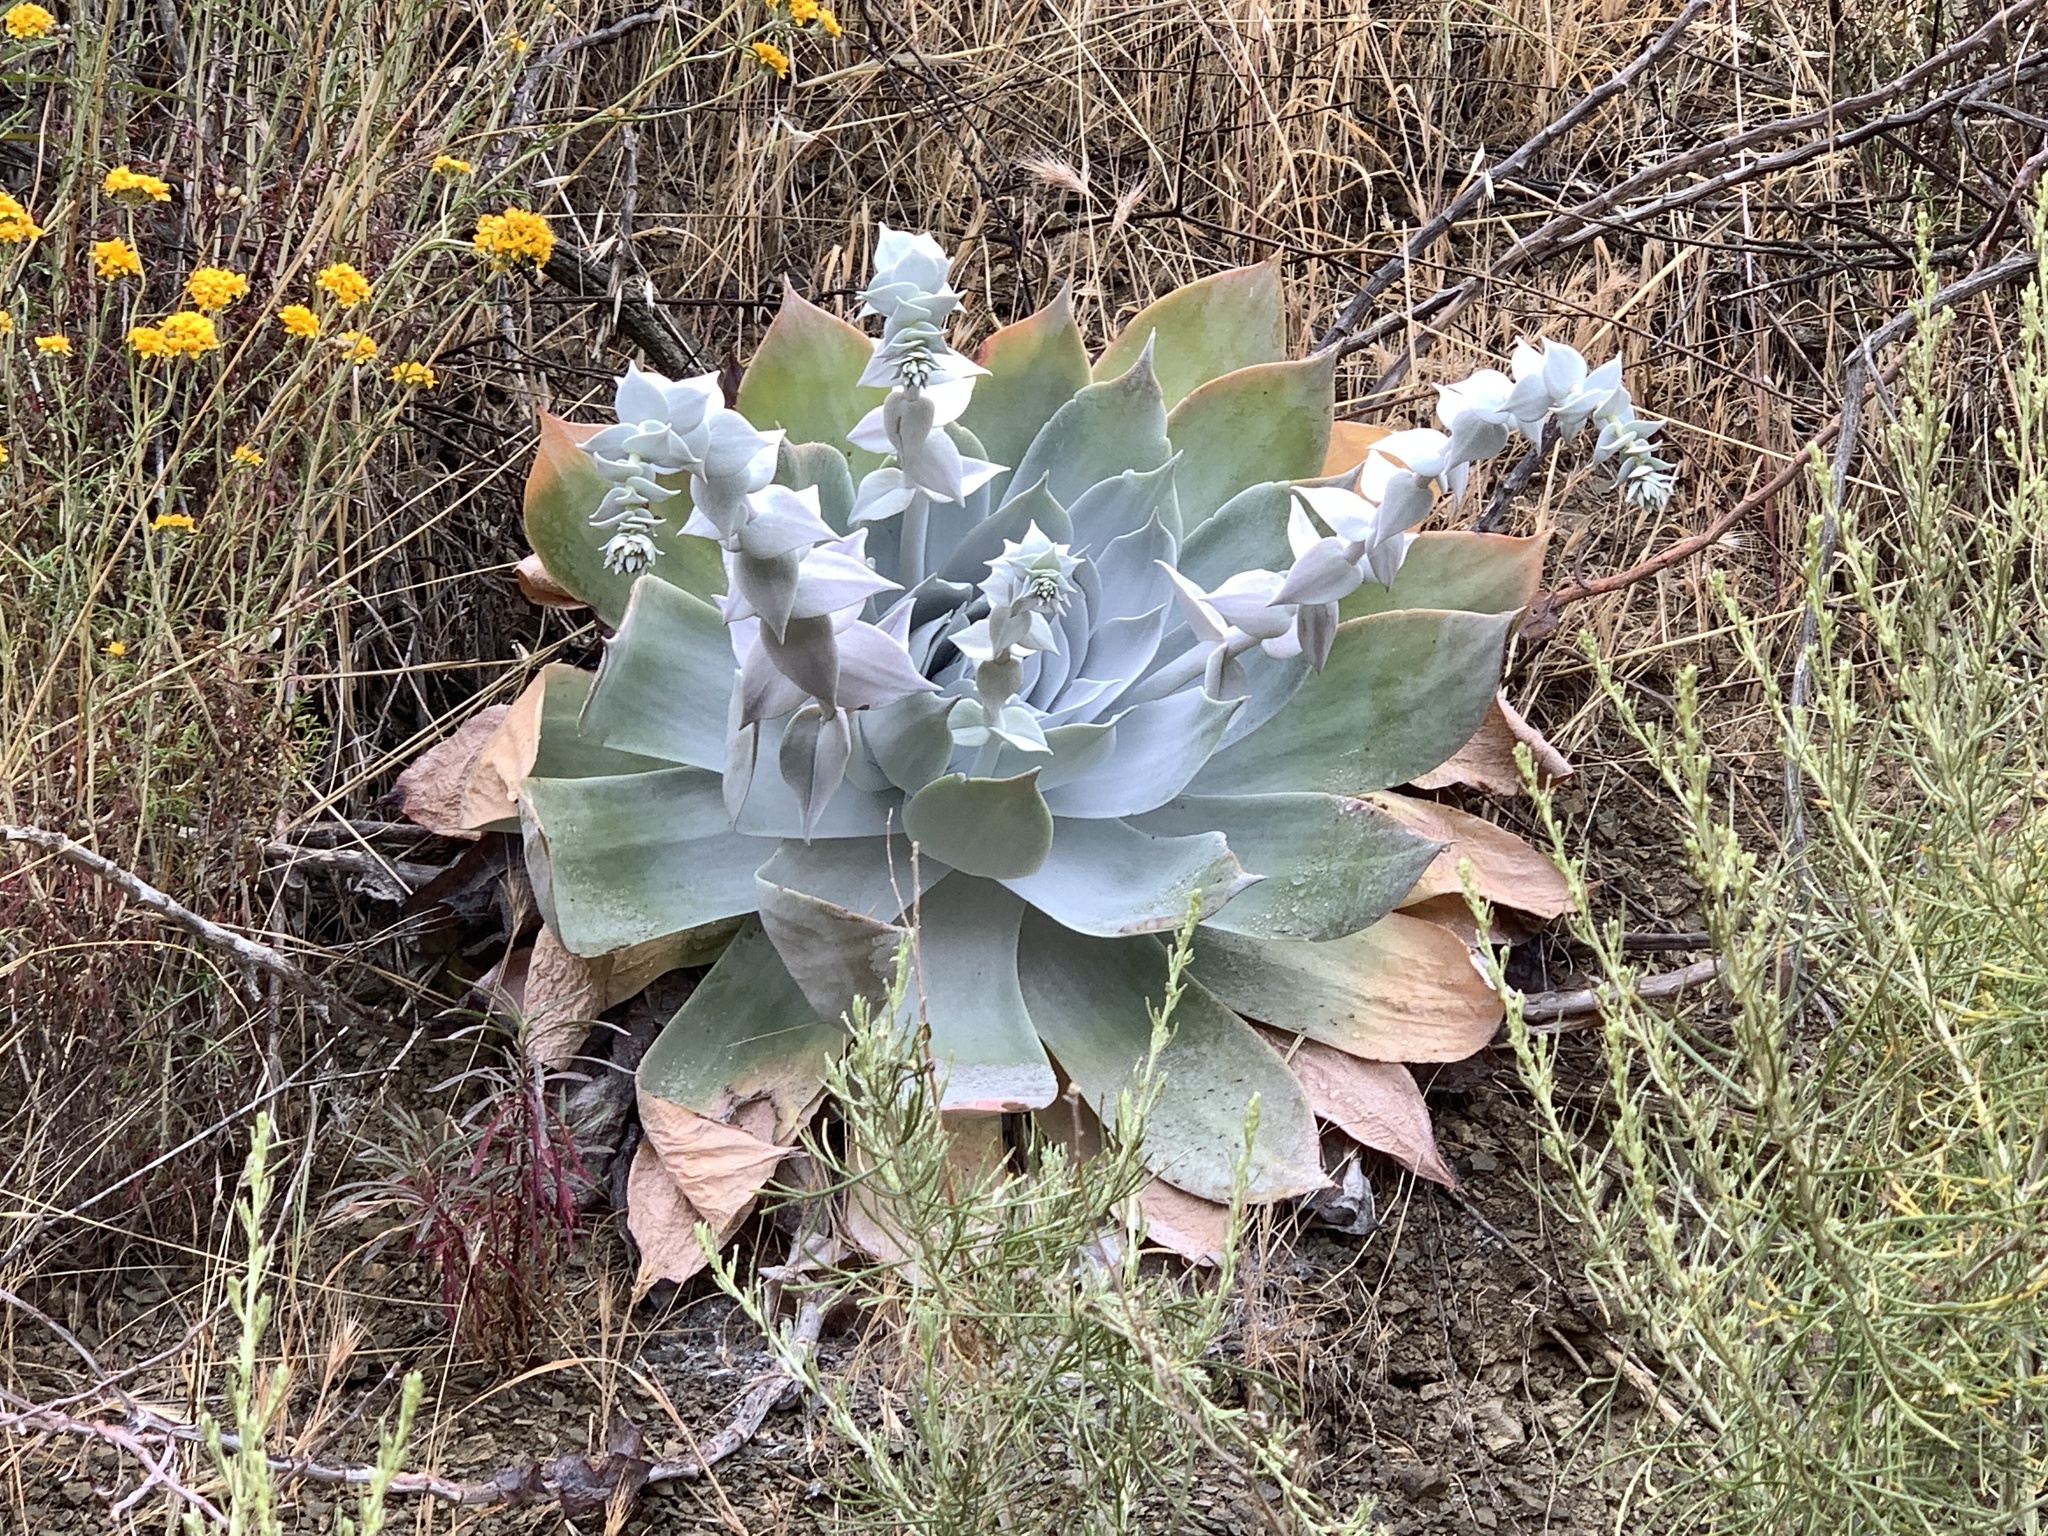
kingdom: Plantae
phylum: Tracheophyta
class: Magnoliopsida
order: Saxifragales
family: Crassulaceae
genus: Dudleya
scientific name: Dudleya pulverulenta
